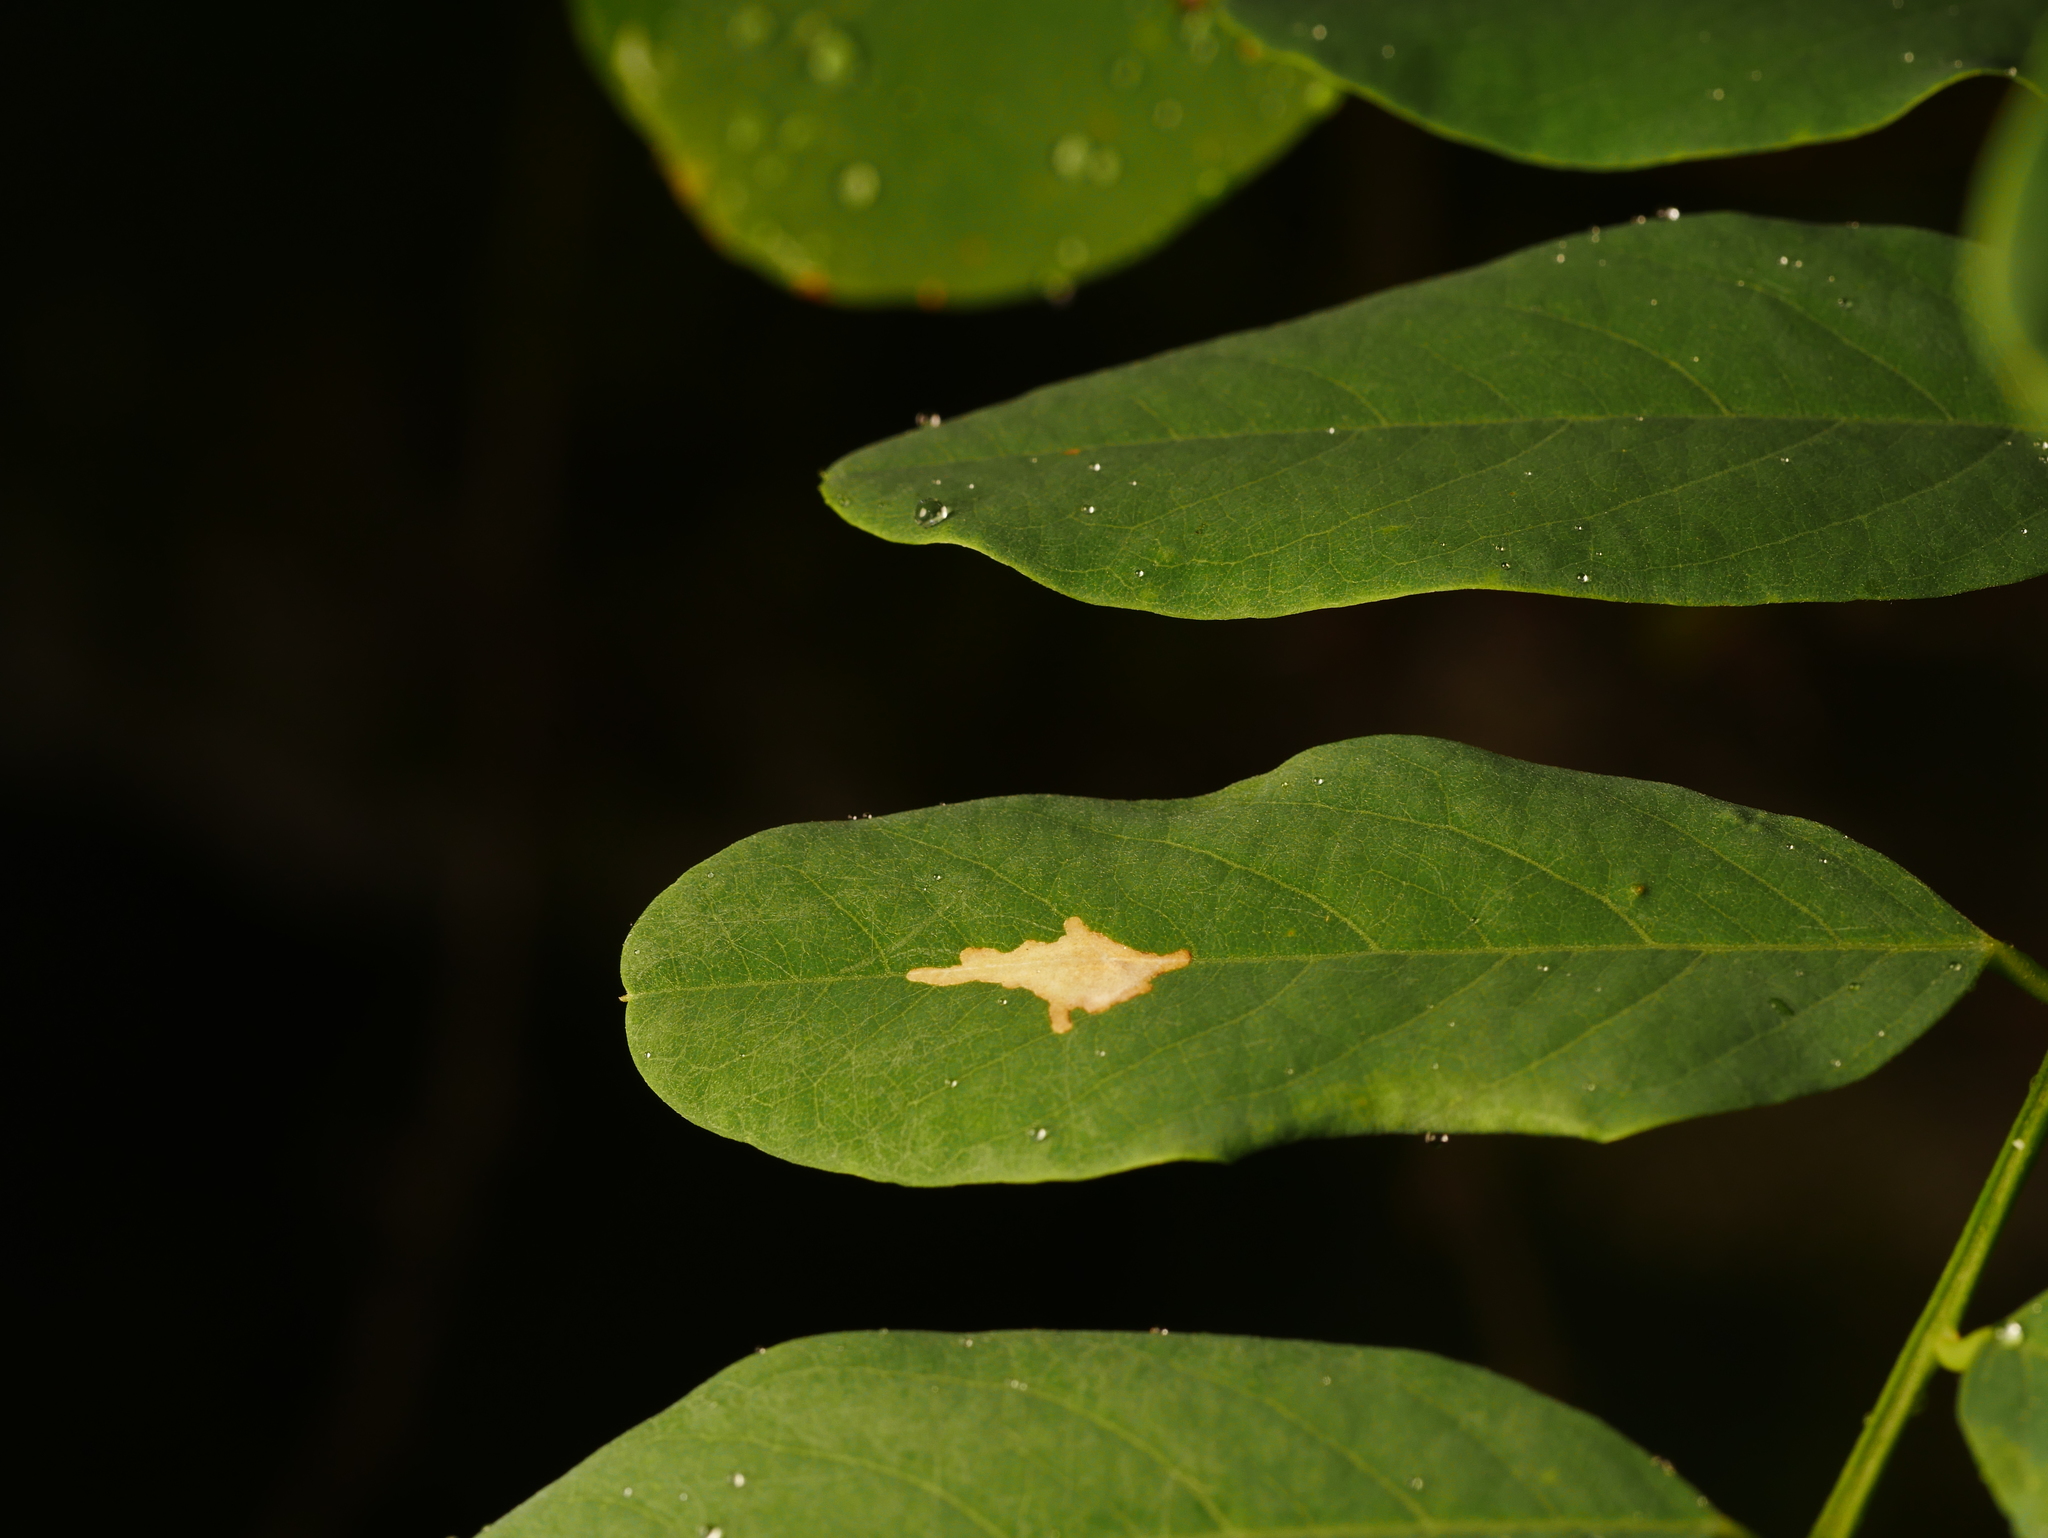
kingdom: Animalia
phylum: Arthropoda
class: Insecta
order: Lepidoptera
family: Gracillariidae
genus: Parectopa
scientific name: Parectopa robiniella
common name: Locust digitate leafminer
